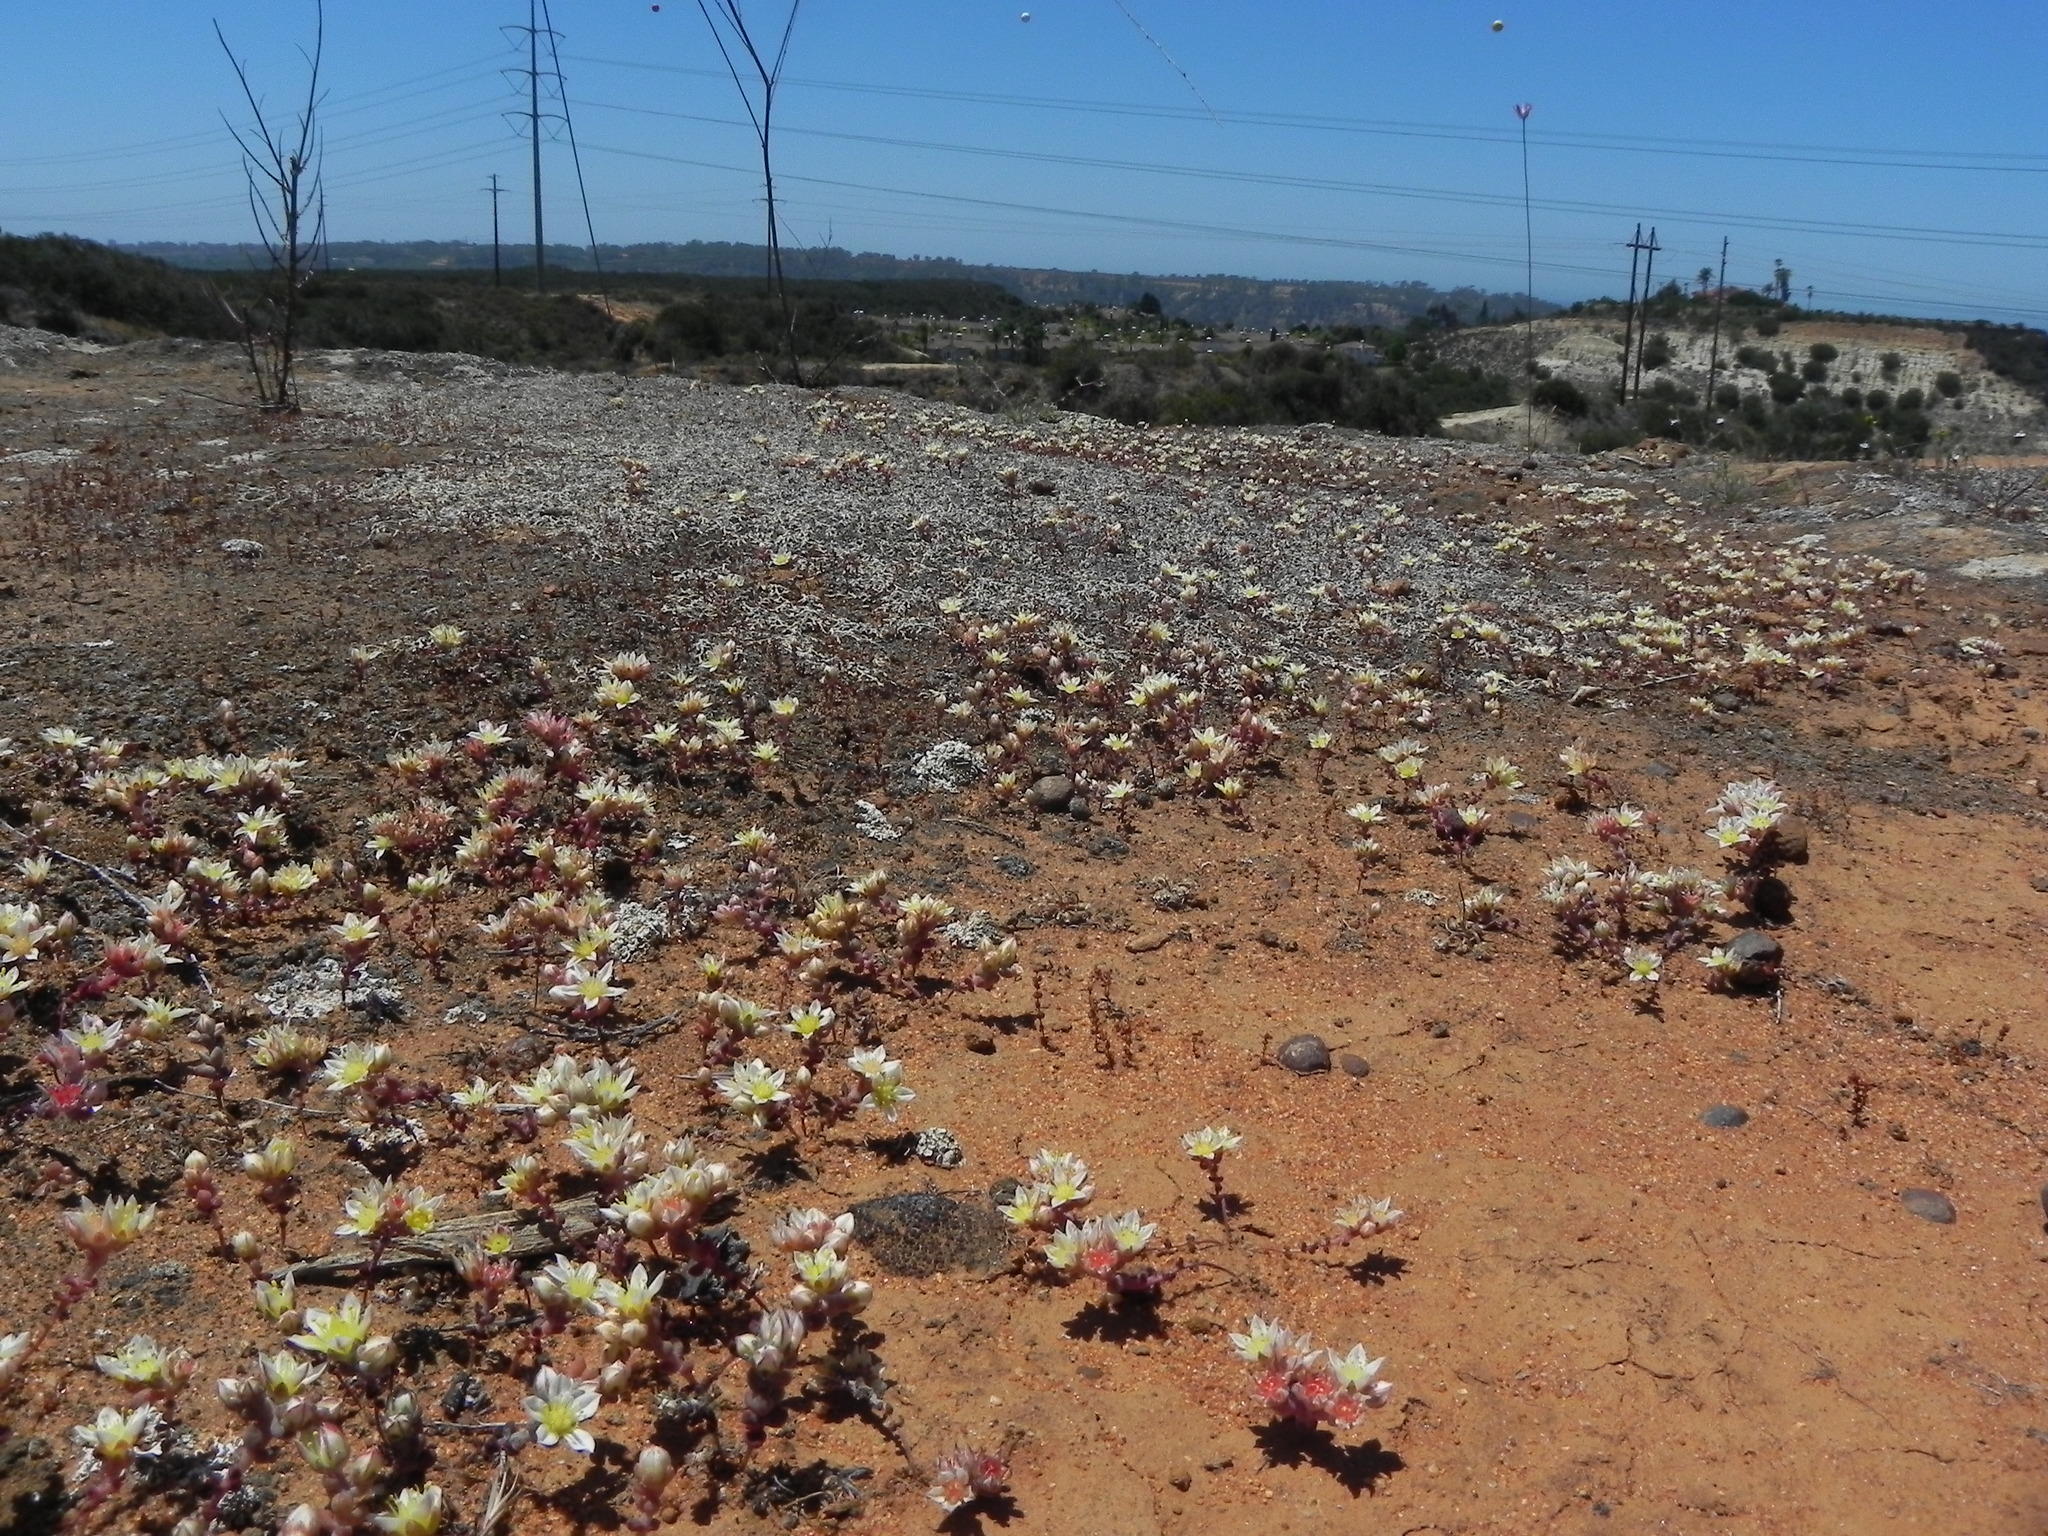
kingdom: Plantae
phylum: Tracheophyta
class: Magnoliopsida
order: Saxifragales
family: Crassulaceae
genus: Dudleya
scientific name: Dudleya blochmaniae
